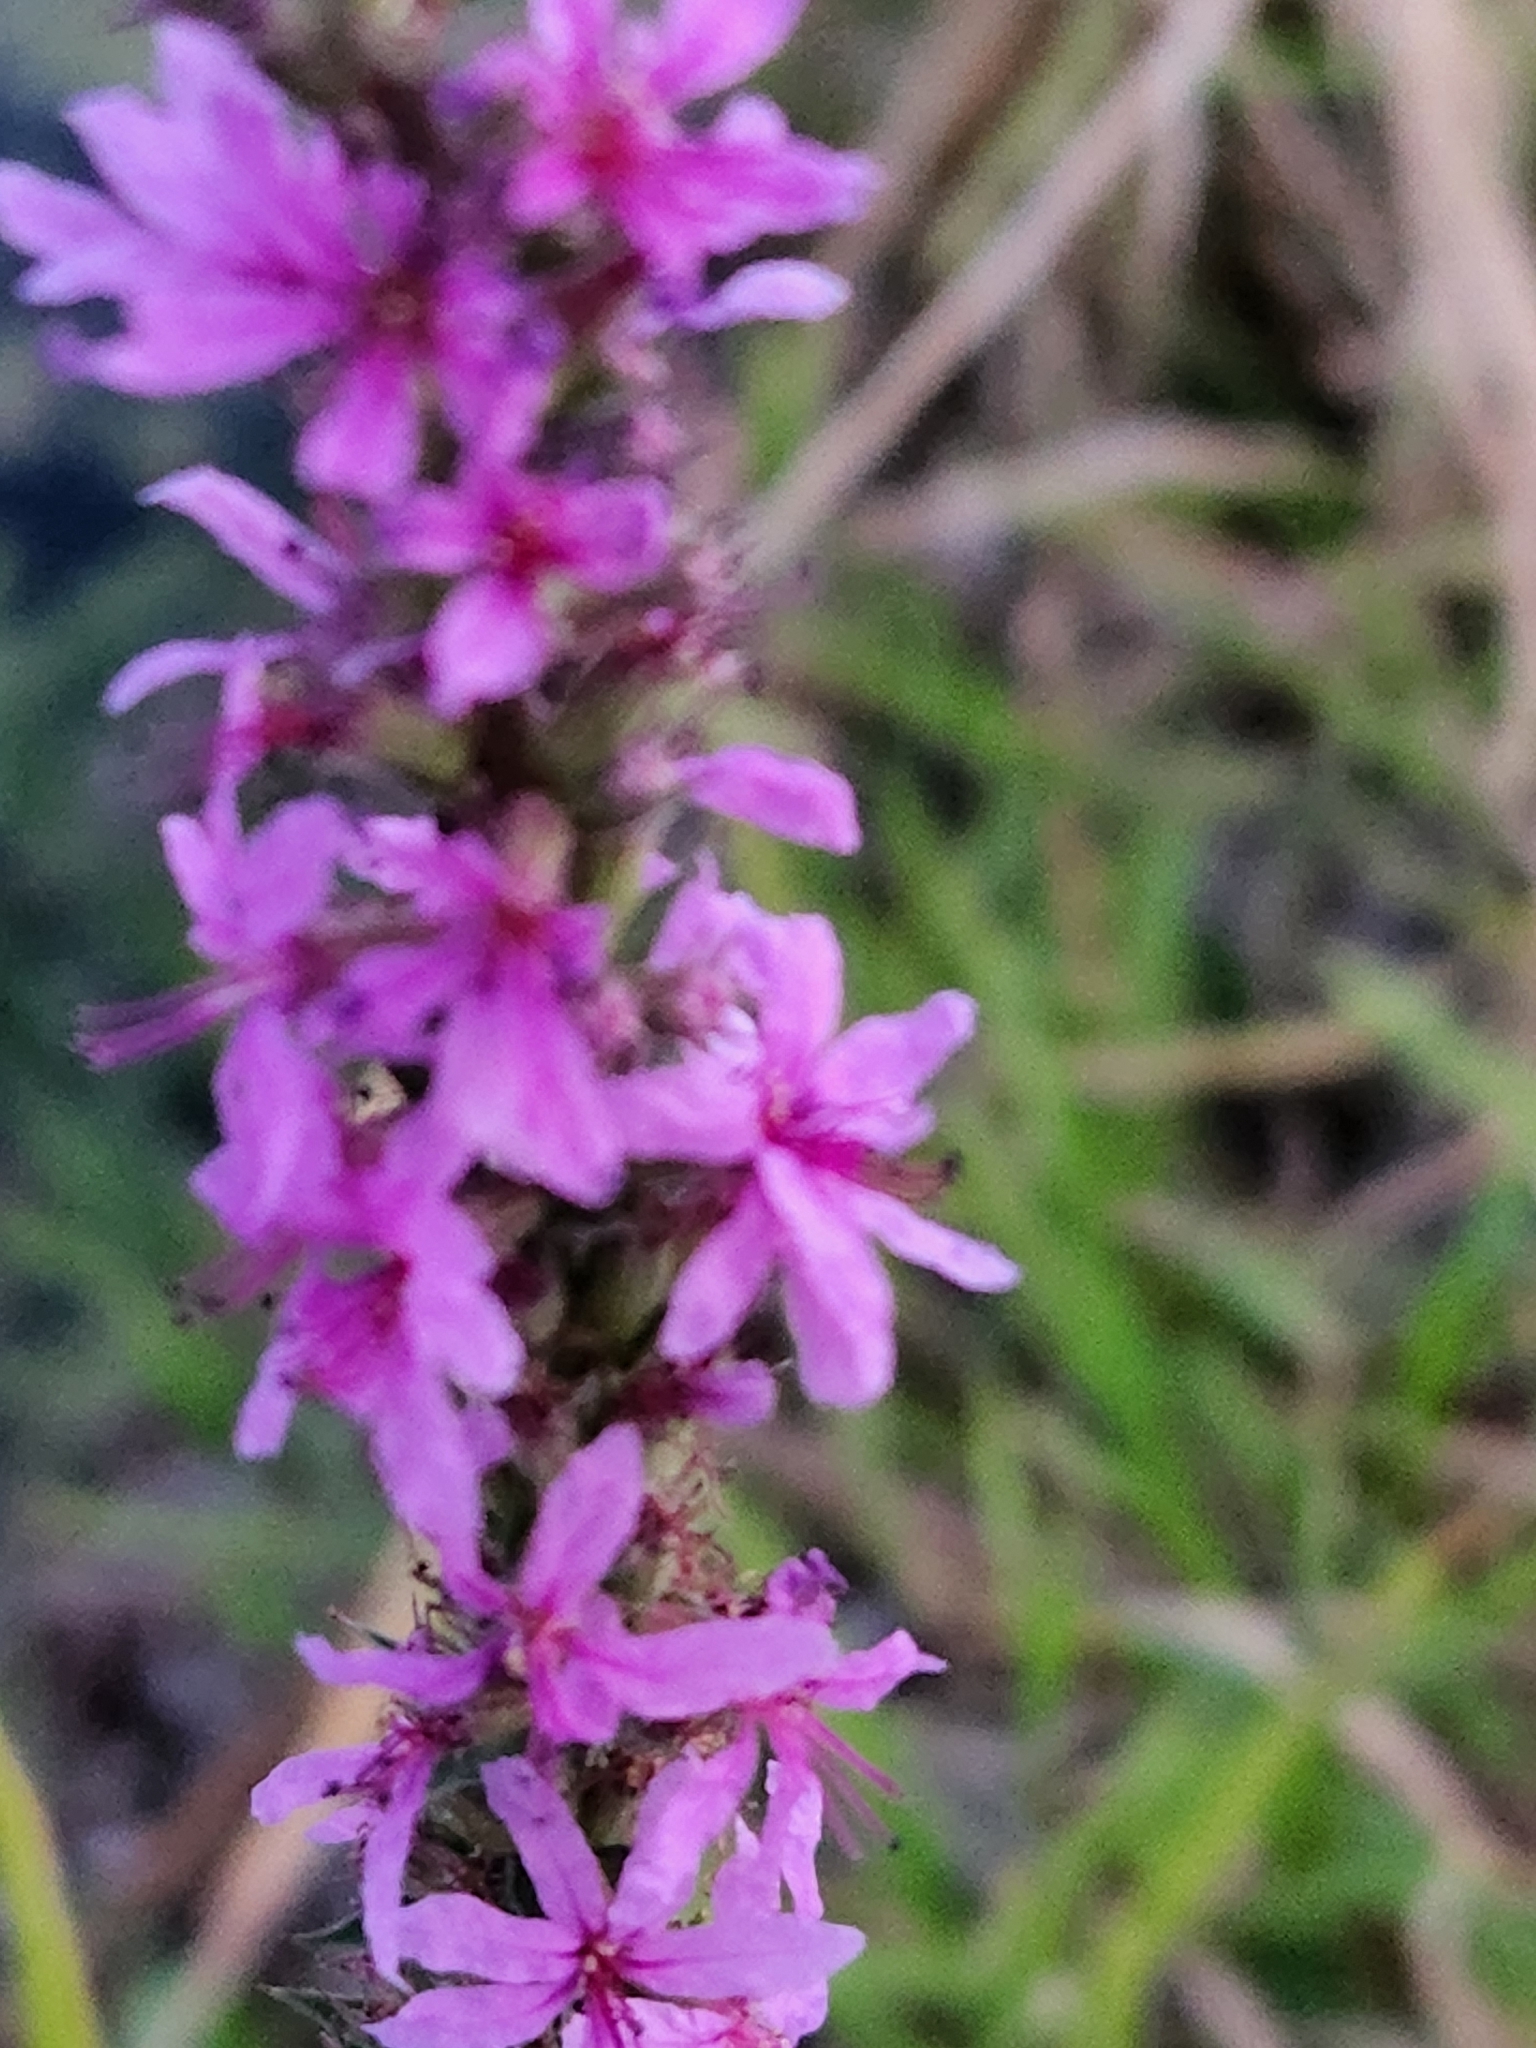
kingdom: Plantae
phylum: Tracheophyta
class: Magnoliopsida
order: Myrtales
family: Lythraceae
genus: Lythrum
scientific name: Lythrum salicaria
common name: Purple loosestrife
